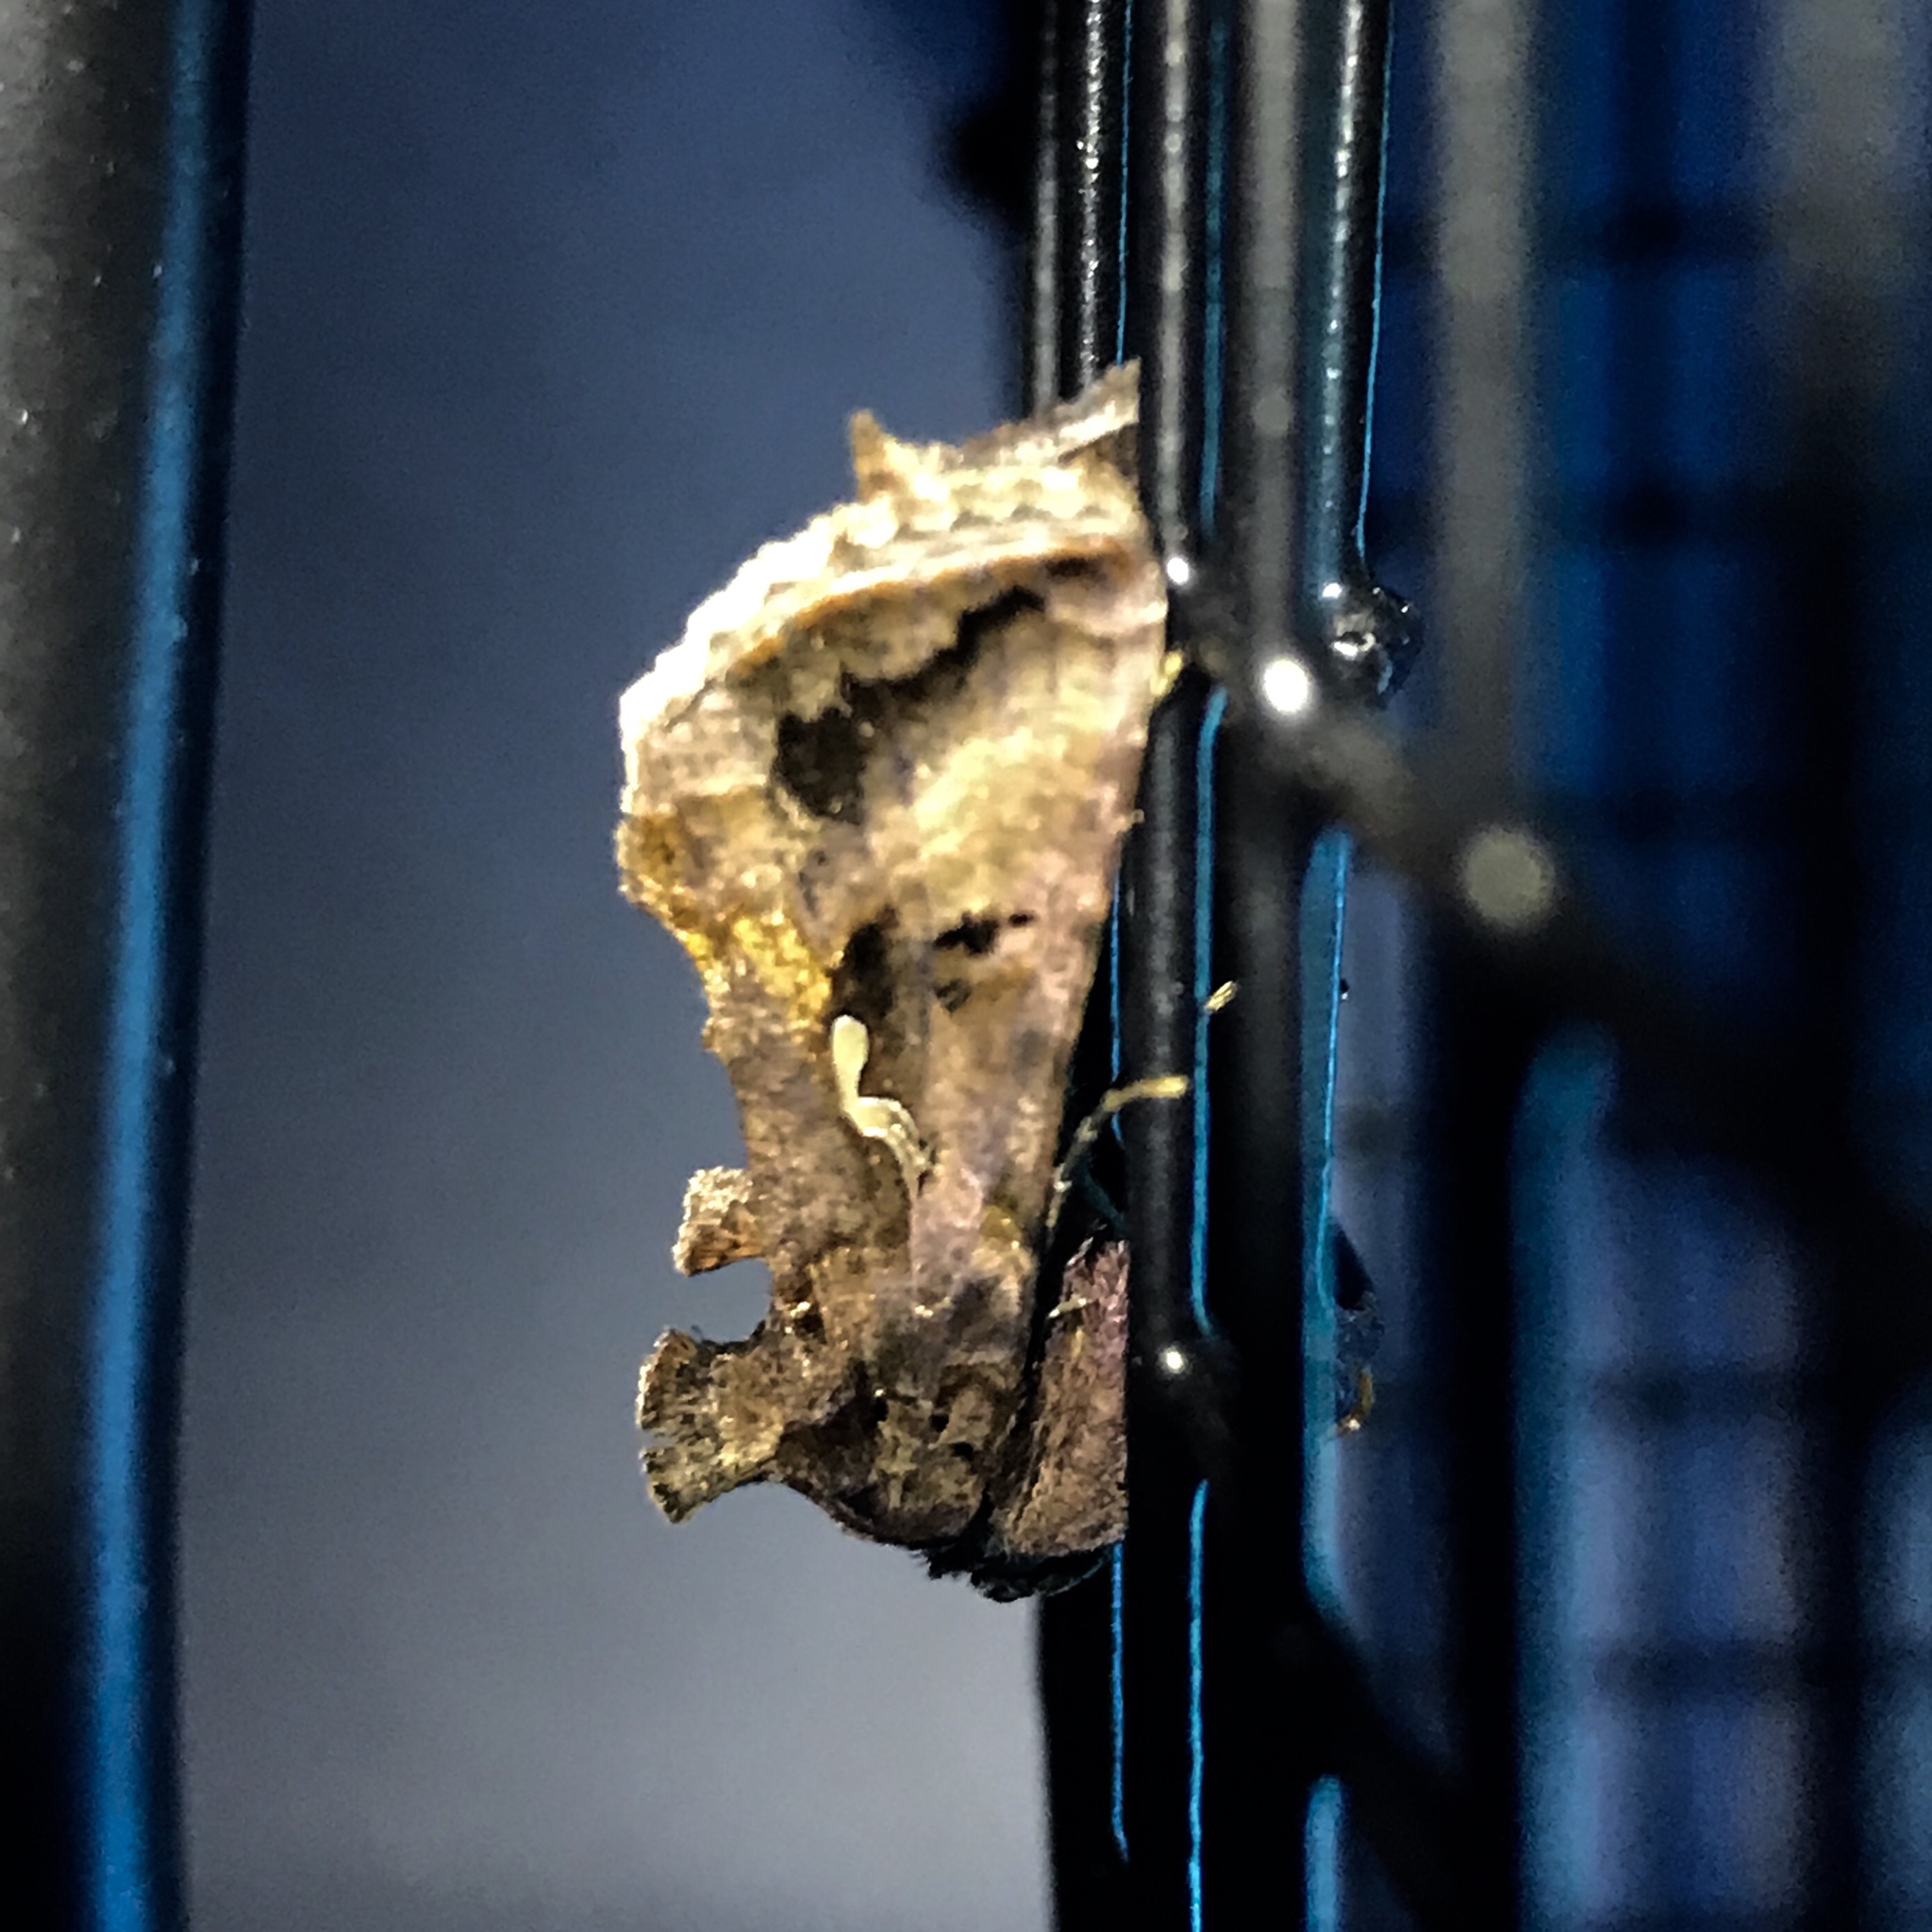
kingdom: Animalia
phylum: Arthropoda
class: Insecta
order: Lepidoptera
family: Noctuidae
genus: Autographa
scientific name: Autographa precationis
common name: Common looper moth
